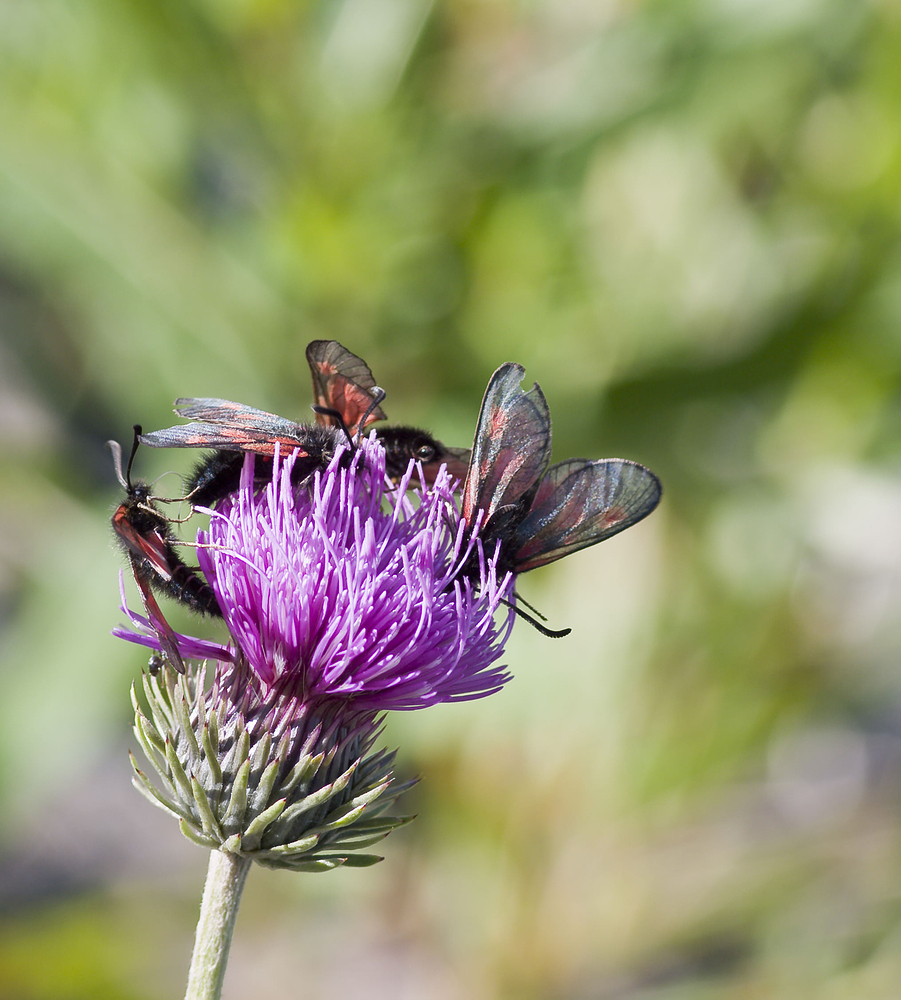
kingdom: Animalia
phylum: Arthropoda
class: Insecta
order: Lepidoptera
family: Zygaenidae
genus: Zygaena
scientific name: Zygaena exulans
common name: Scotch burnet
